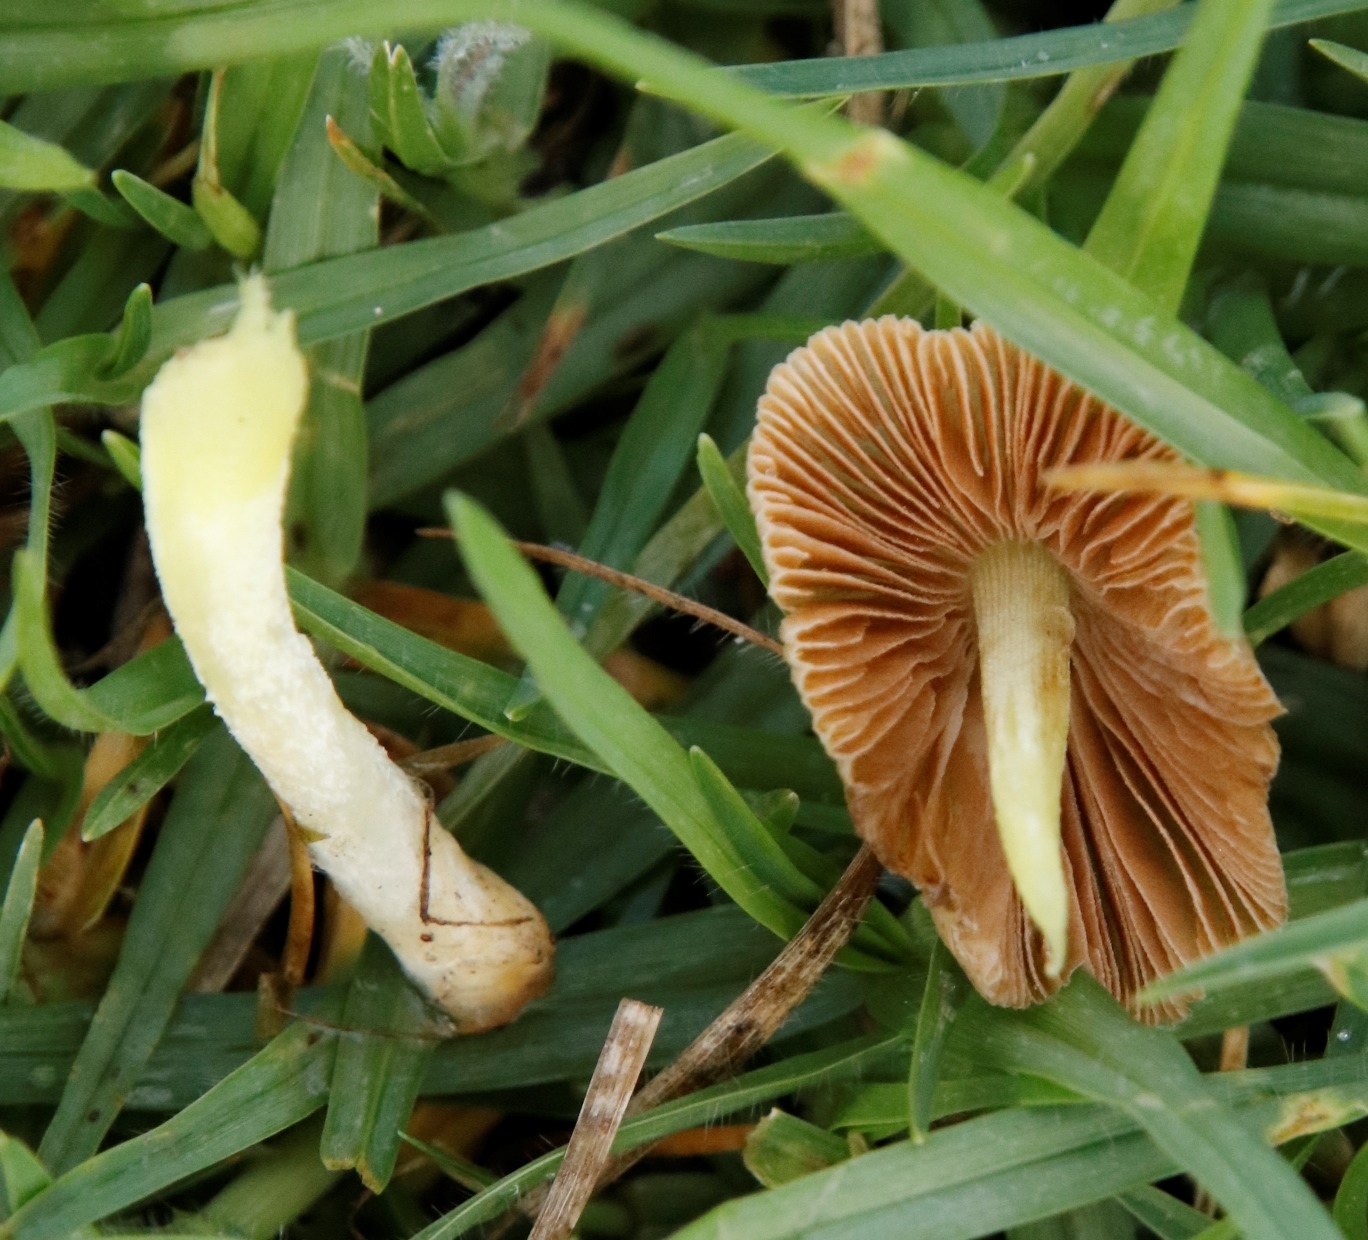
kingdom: Fungi
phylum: Basidiomycota
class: Agaricomycetes
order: Agaricales
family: Bolbitiaceae
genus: Bolbitius
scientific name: Bolbitius titubans
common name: Yellow fieldcap
